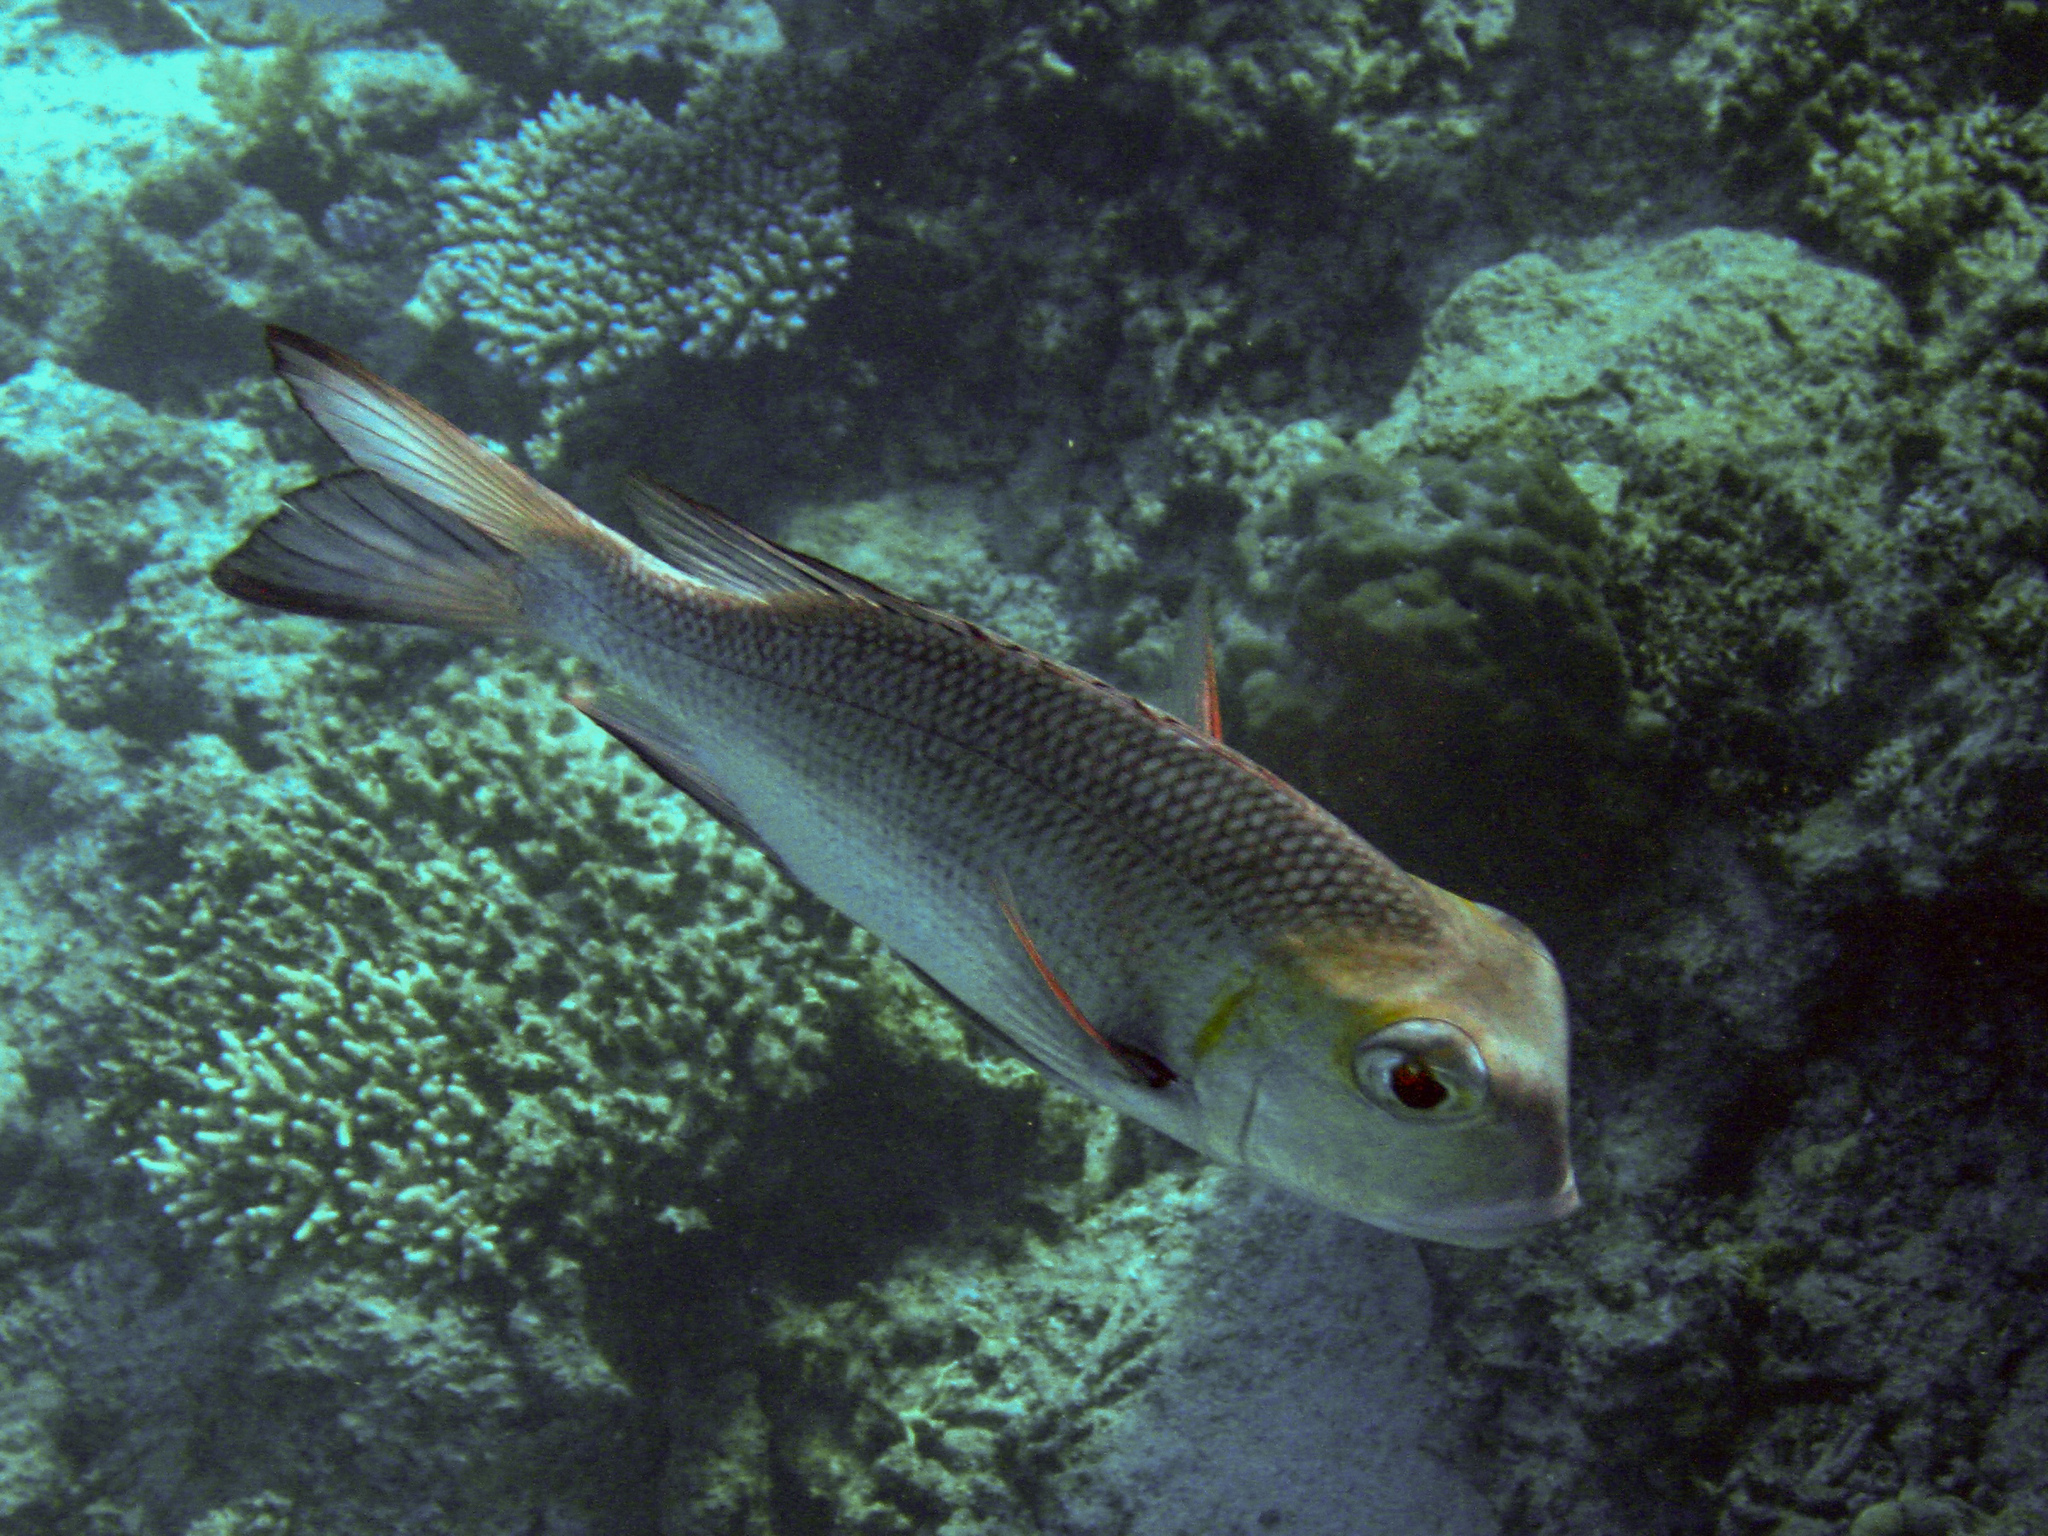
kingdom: Animalia
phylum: Chordata
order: Perciformes
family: Lethrinidae
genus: Monotaxis
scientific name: Monotaxis grandoculis
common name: Bigeye emperor
